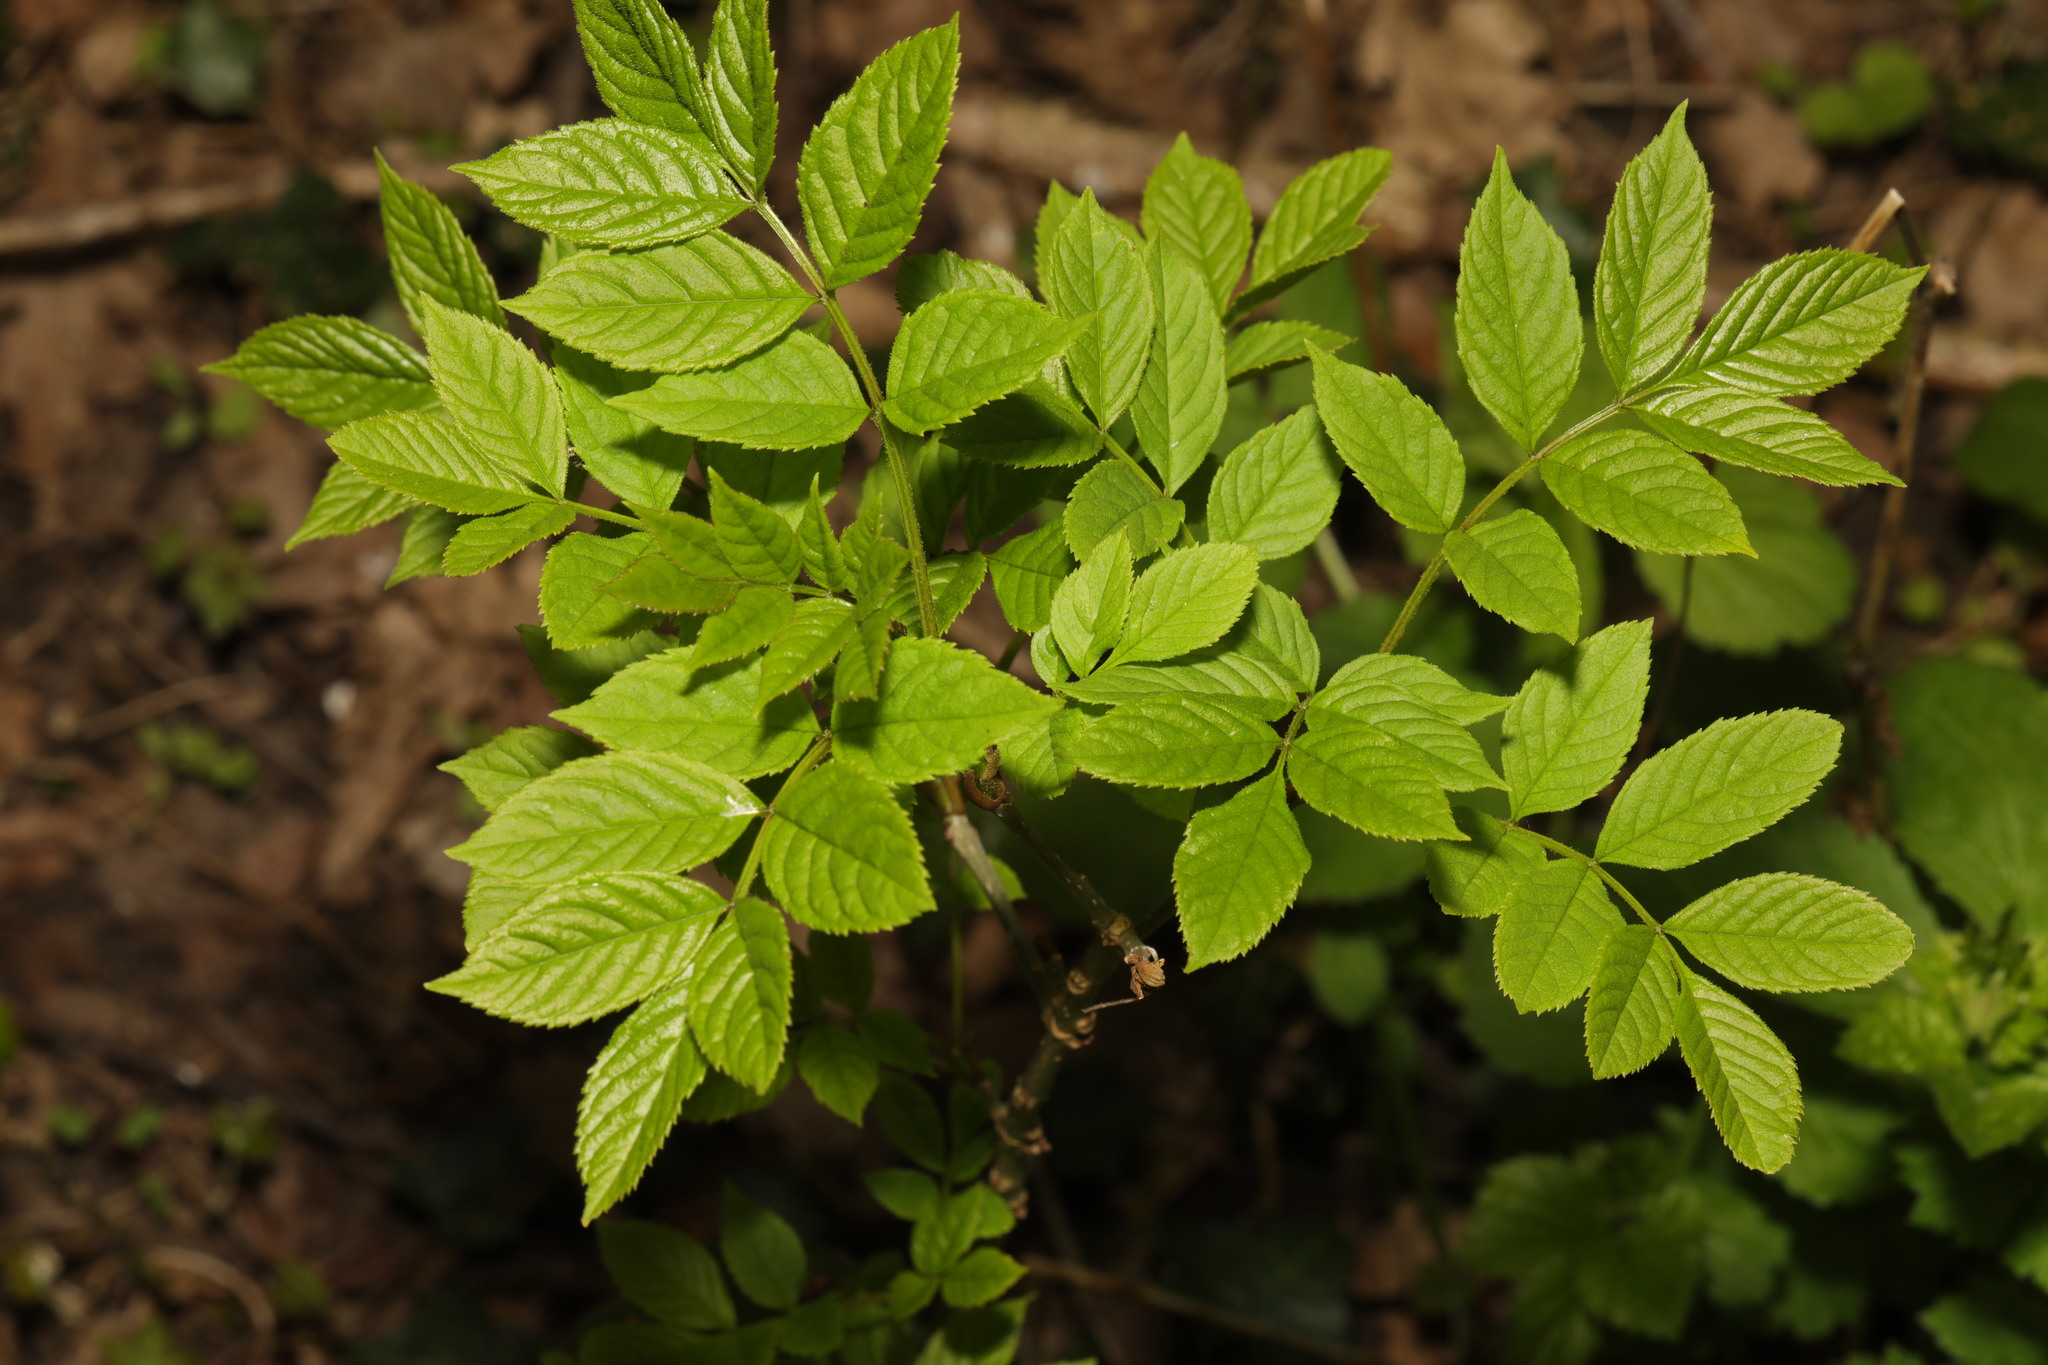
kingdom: Plantae
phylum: Tracheophyta
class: Magnoliopsida
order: Lamiales
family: Oleaceae
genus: Fraxinus
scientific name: Fraxinus excelsior
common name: European ash
